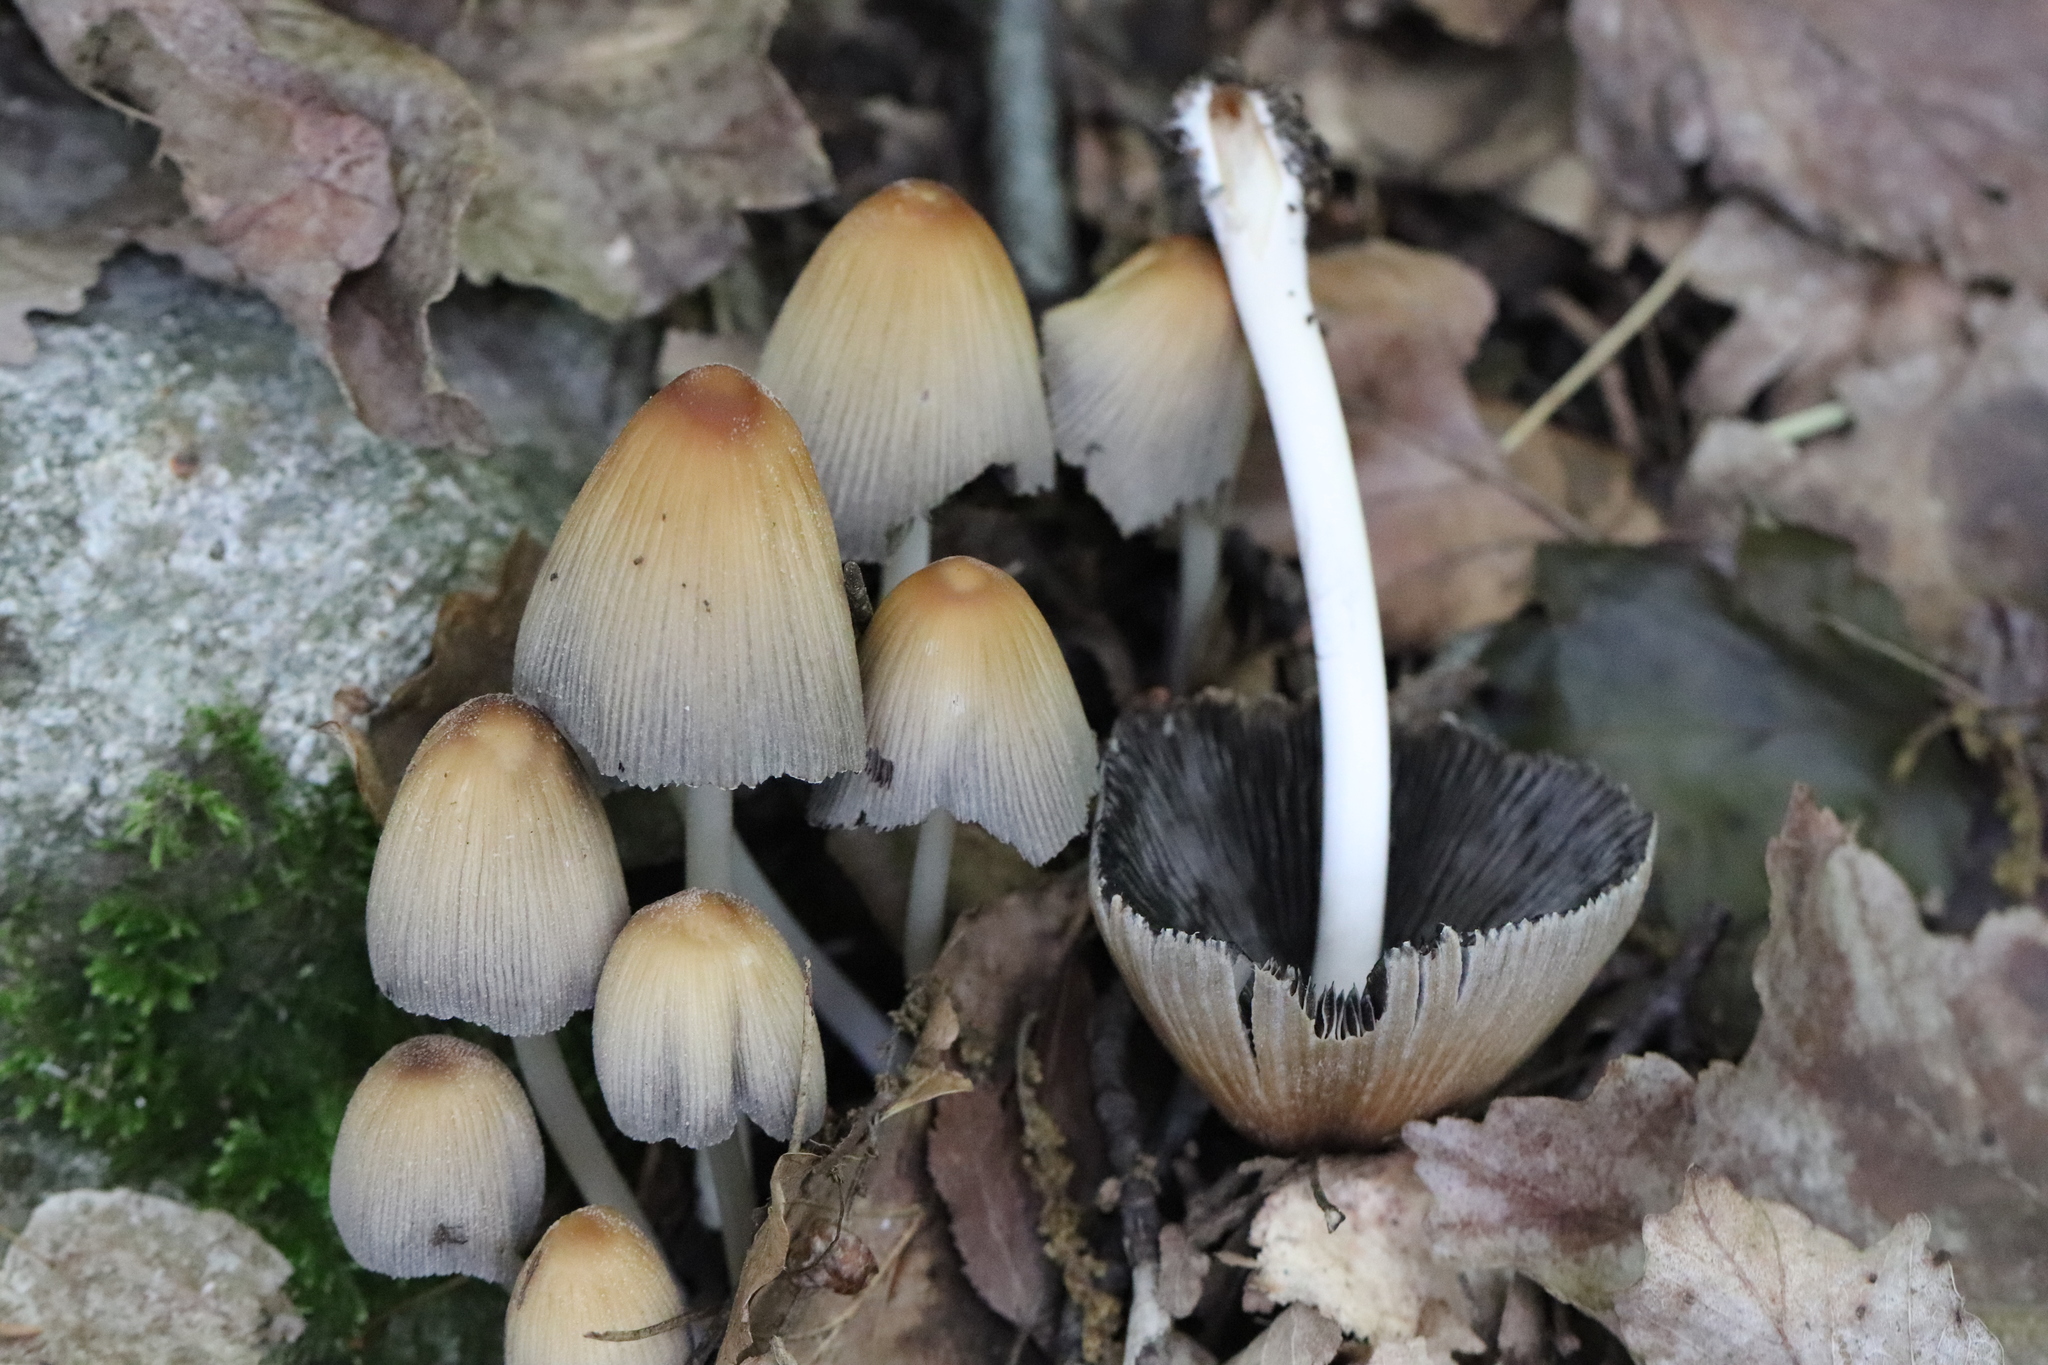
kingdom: Fungi
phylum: Basidiomycota
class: Agaricomycetes
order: Agaricales
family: Psathyrellaceae
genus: Coprinellus
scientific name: Coprinellus micaceus
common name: Glistening ink-cap
